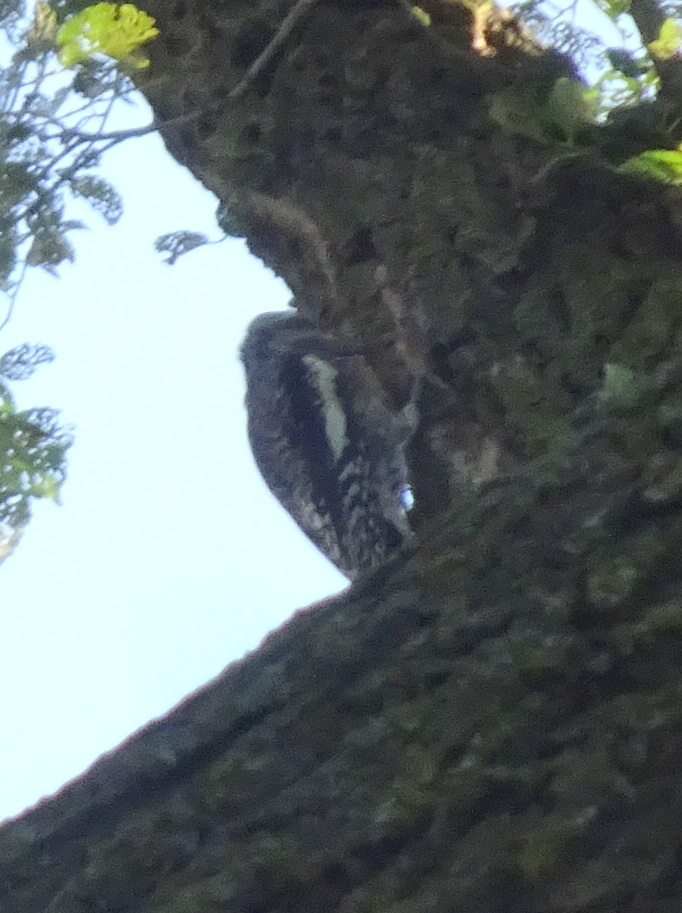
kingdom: Animalia
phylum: Chordata
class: Aves
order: Piciformes
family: Picidae
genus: Sphyrapicus
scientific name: Sphyrapicus varius
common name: Yellow-bellied sapsucker
